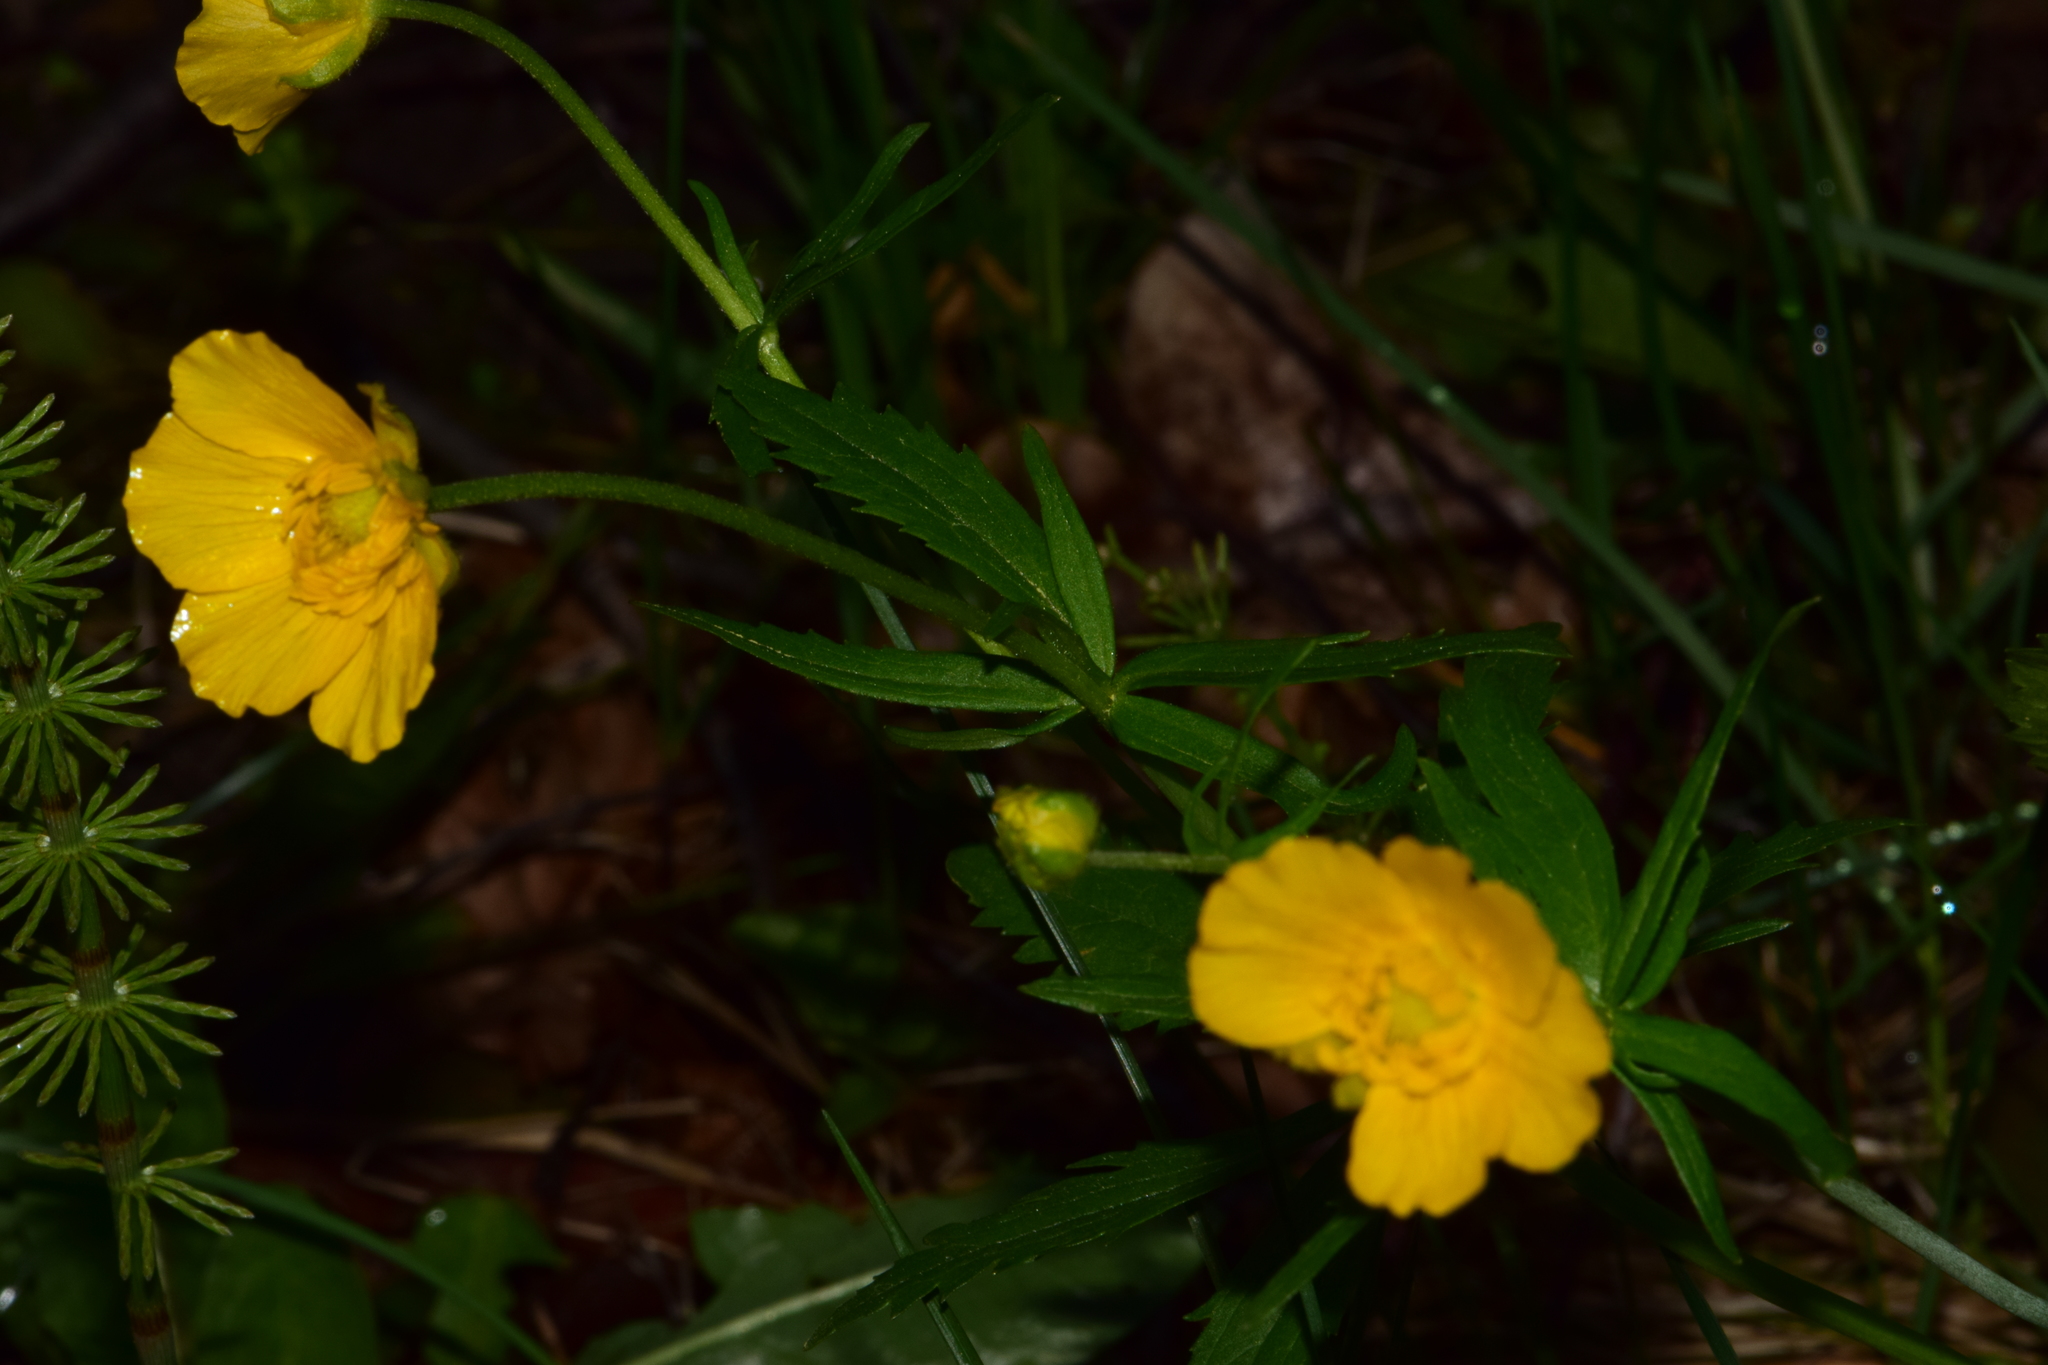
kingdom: Plantae
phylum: Tracheophyta
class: Magnoliopsida
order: Ranunculales
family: Ranunculaceae
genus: Ranunculus
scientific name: Ranunculus cassubicus
